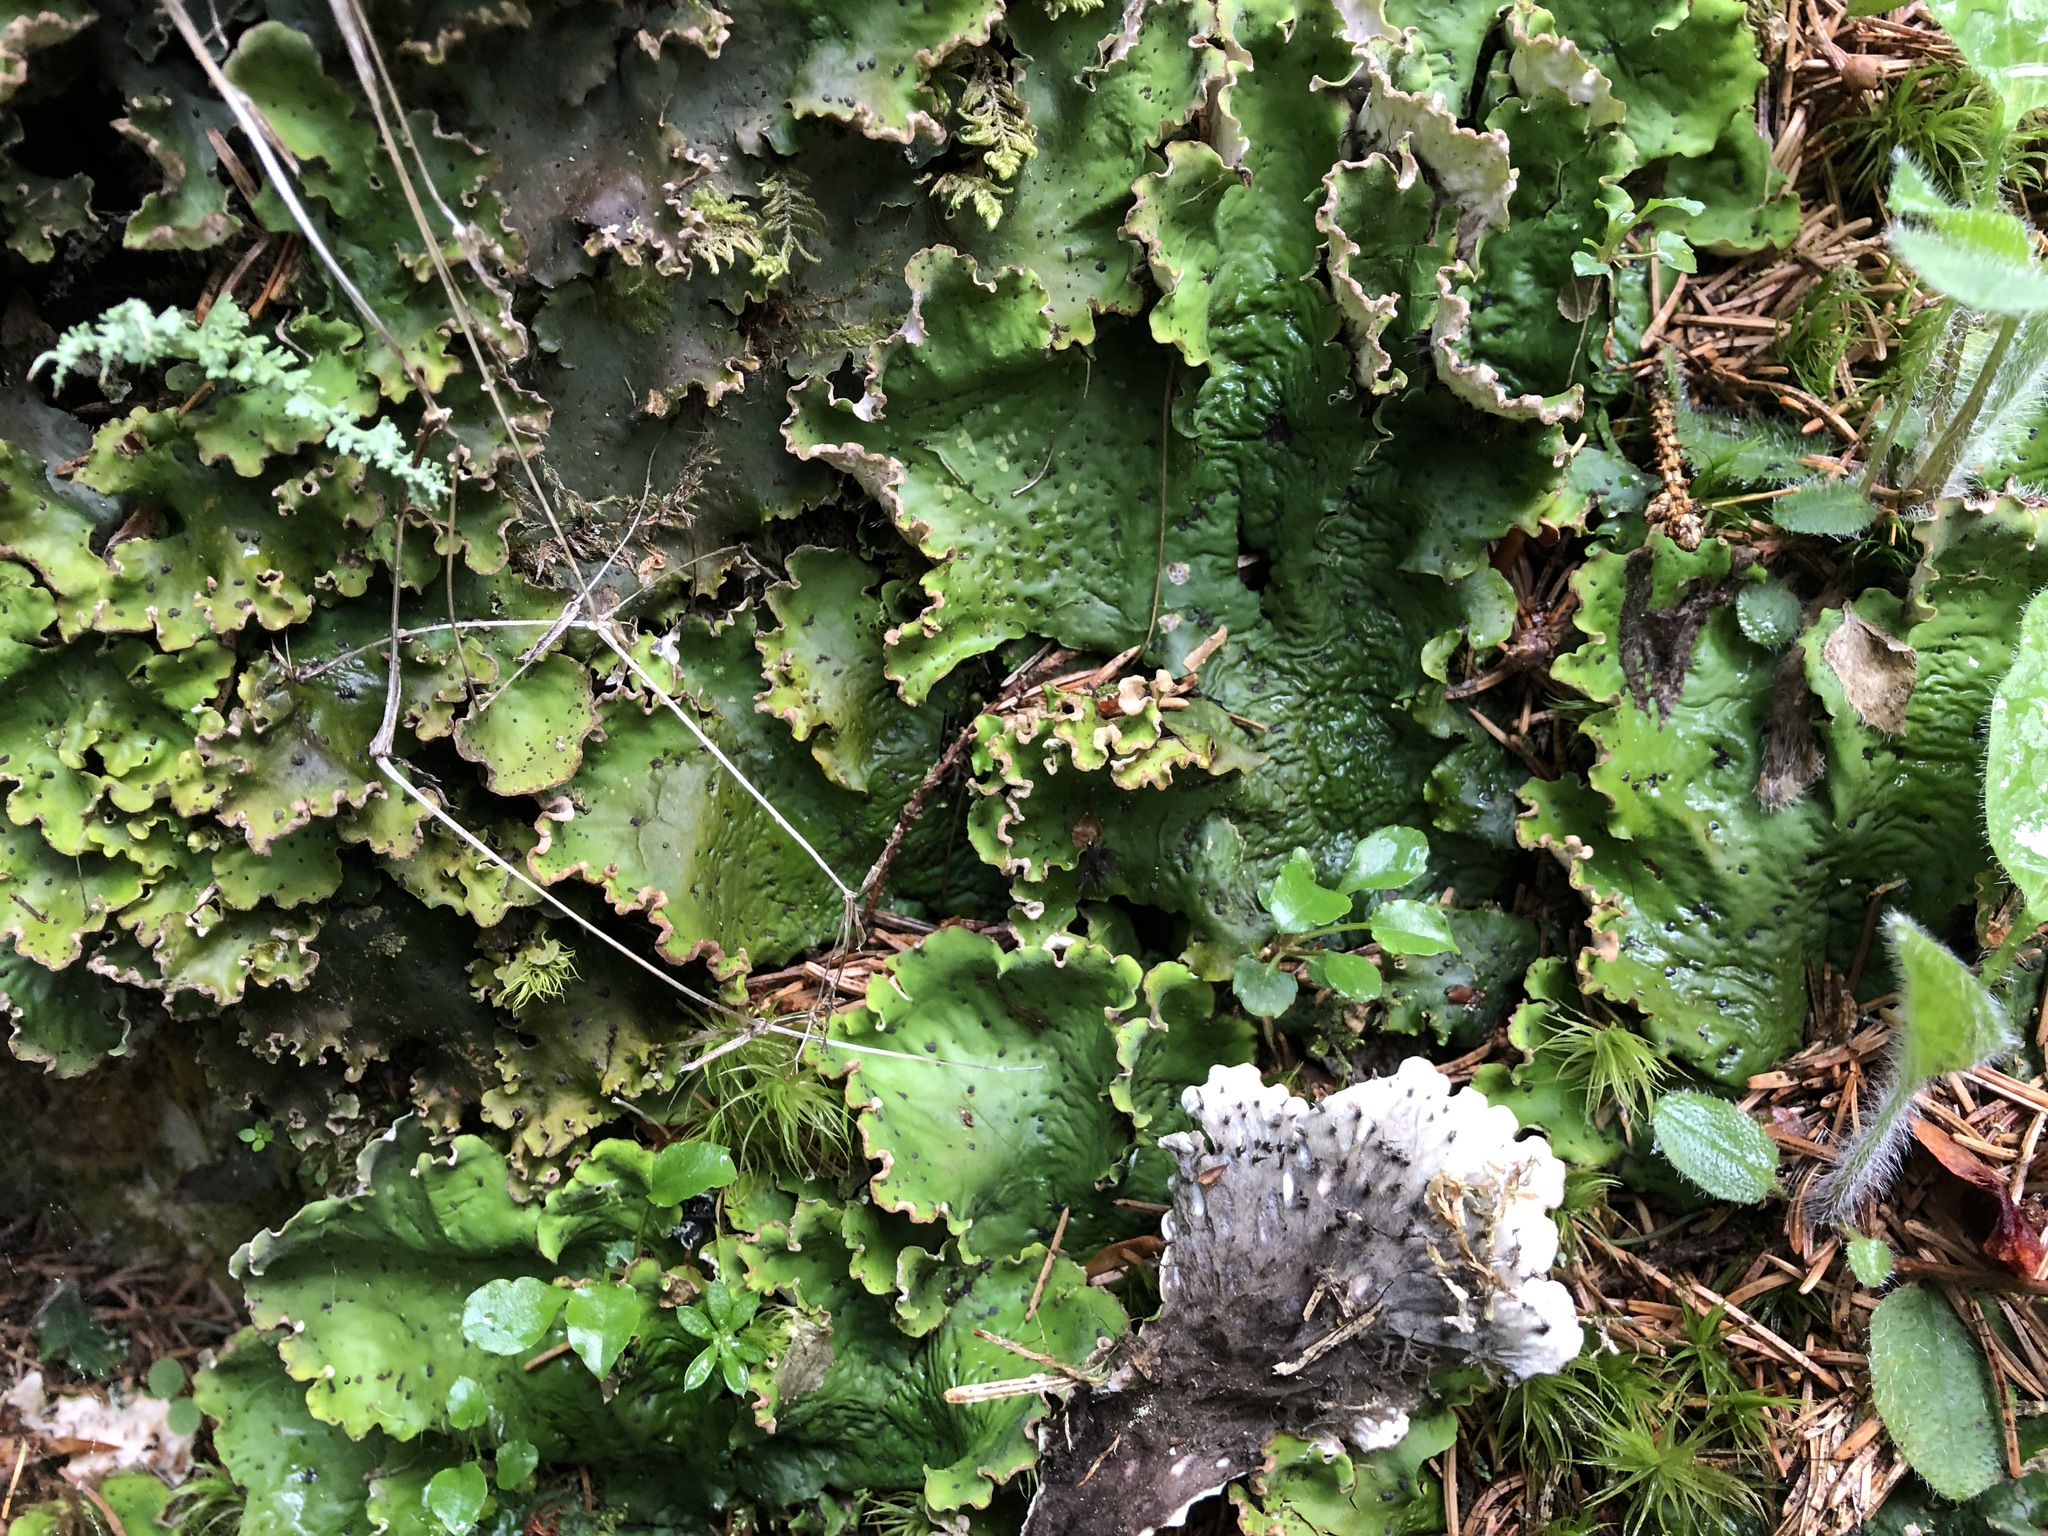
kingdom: Fungi
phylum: Ascomycota
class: Lecanoromycetes
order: Peltigerales
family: Peltigeraceae
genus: Peltigera
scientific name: Peltigera britannica
